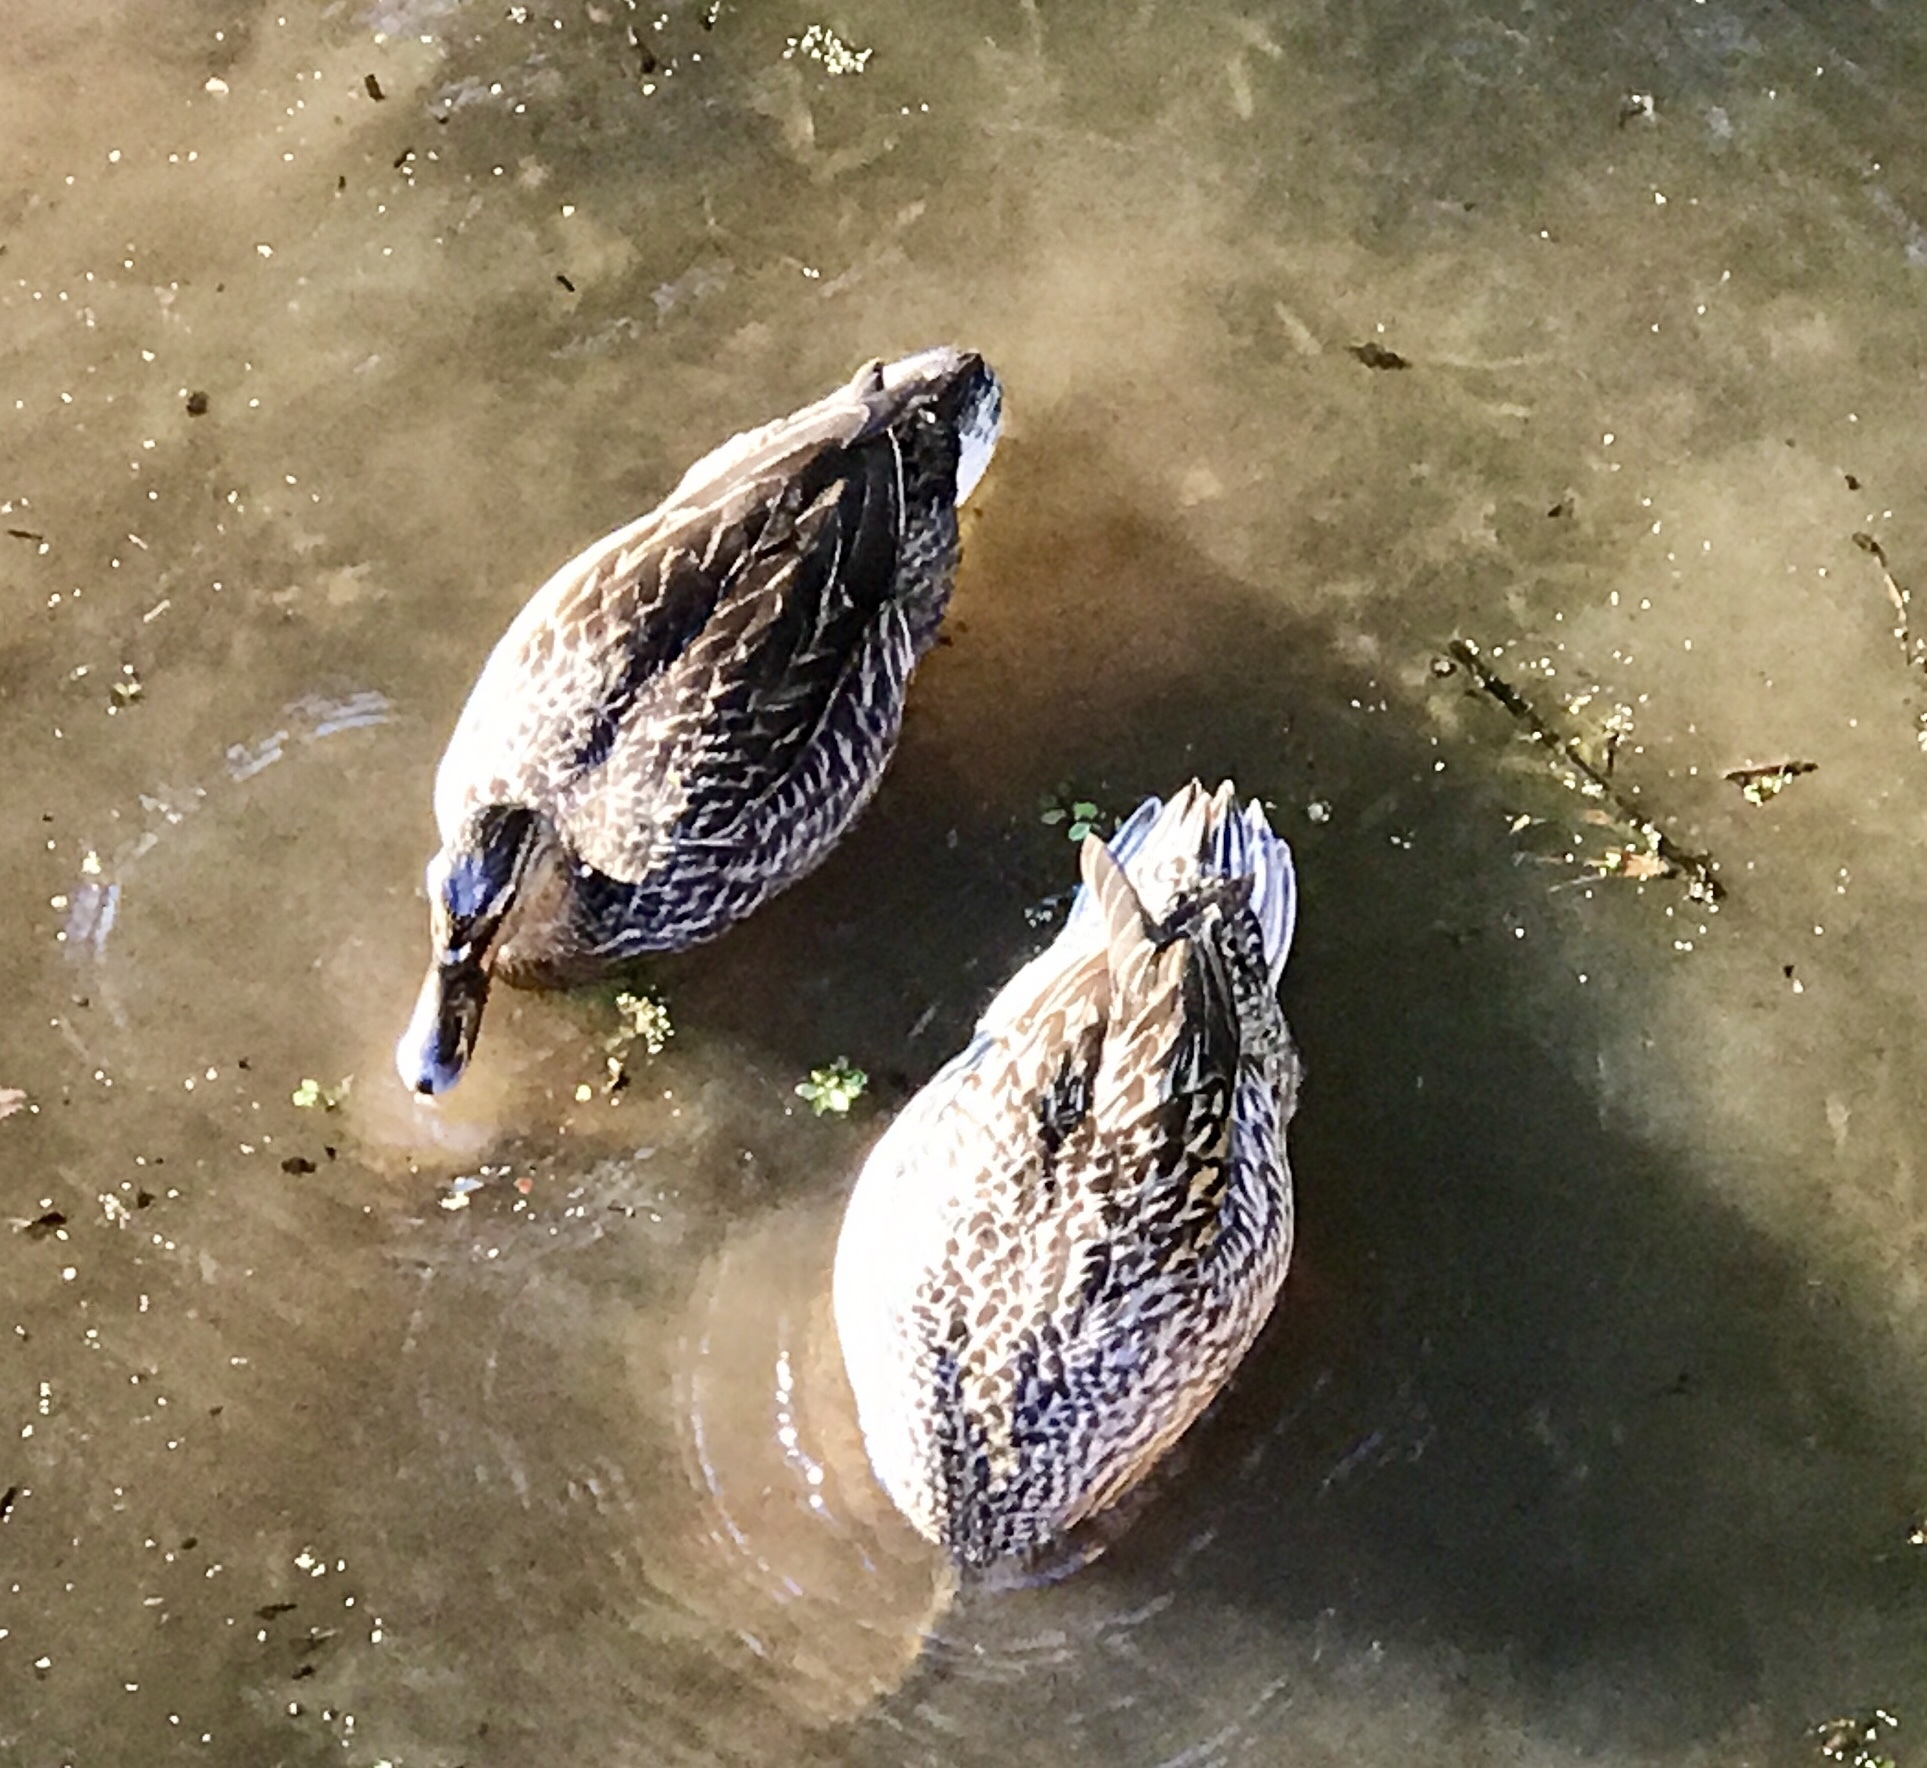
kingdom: Animalia
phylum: Chordata
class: Aves
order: Anseriformes
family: Anatidae
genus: Anas
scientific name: Anas platyrhynchos
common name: Mallard
